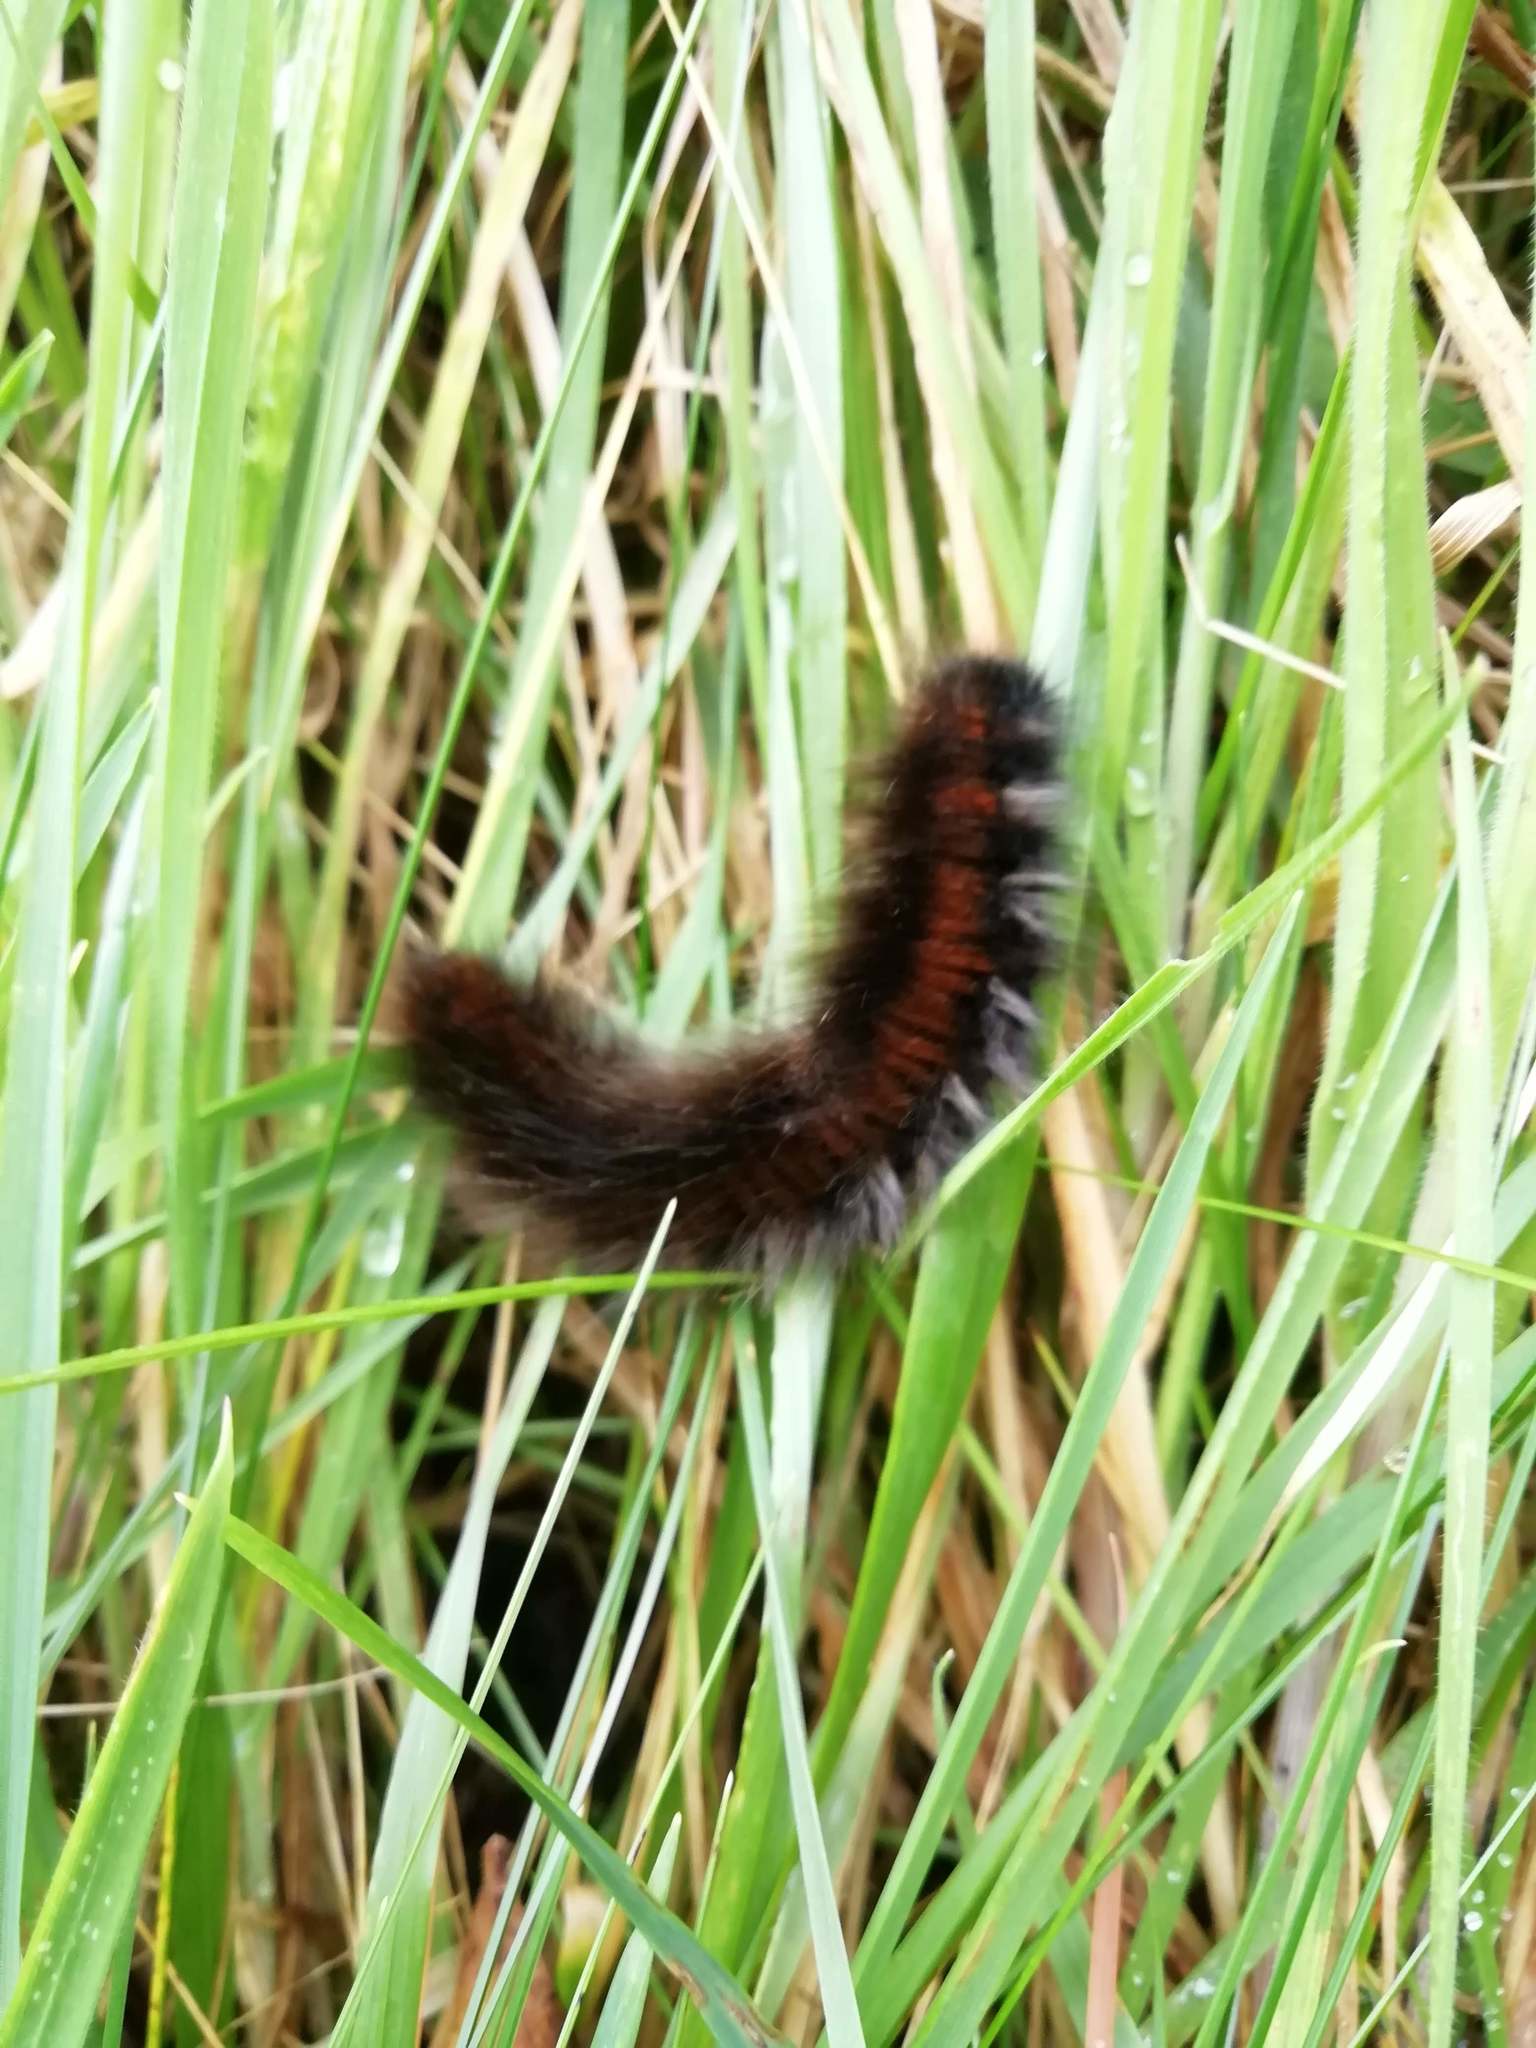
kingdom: Animalia
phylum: Arthropoda
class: Insecta
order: Lepidoptera
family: Lasiocampidae
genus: Macrothylacia
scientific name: Macrothylacia rubi
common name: Fox moth
